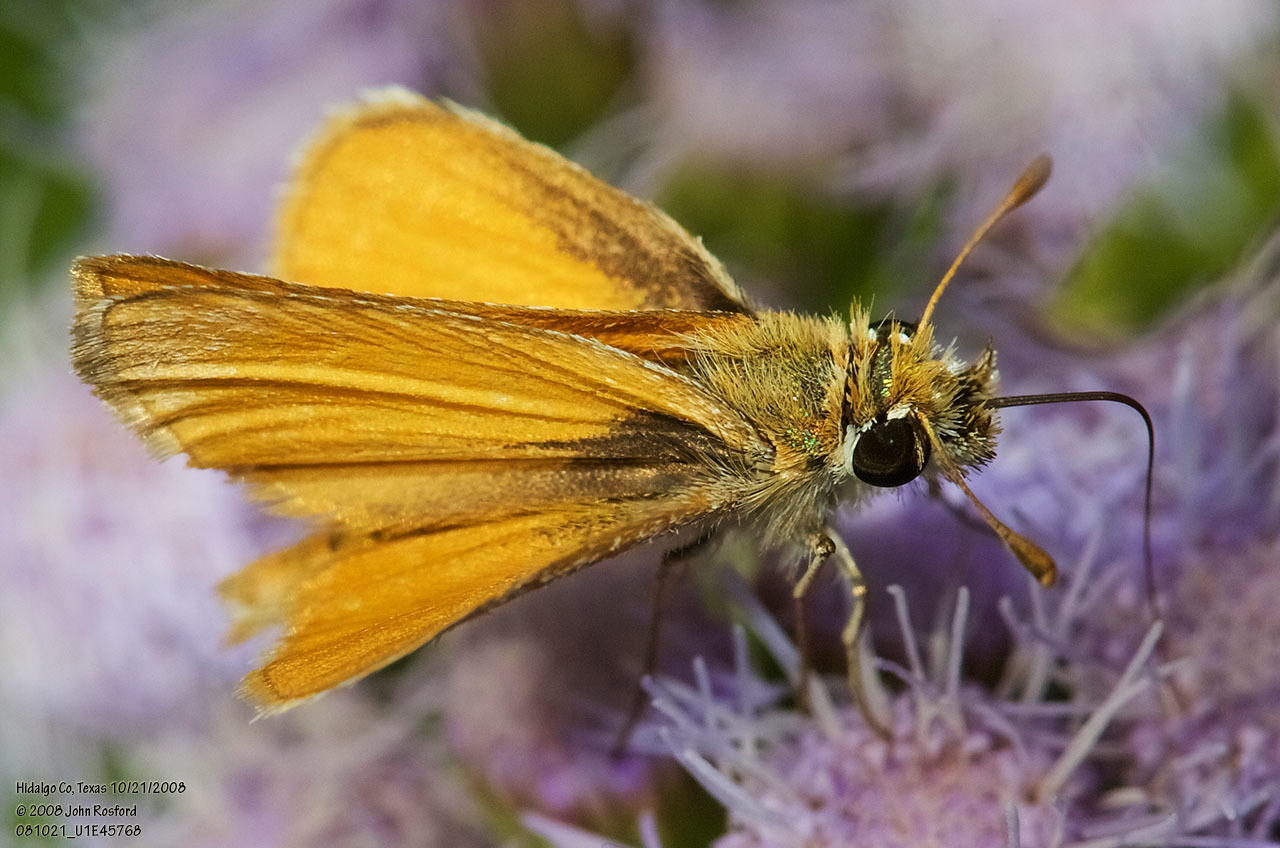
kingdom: Animalia
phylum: Arthropoda
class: Insecta
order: Lepidoptera
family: Hesperiidae
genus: Copaeodes
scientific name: Copaeodes minima
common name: Southern skipperling
